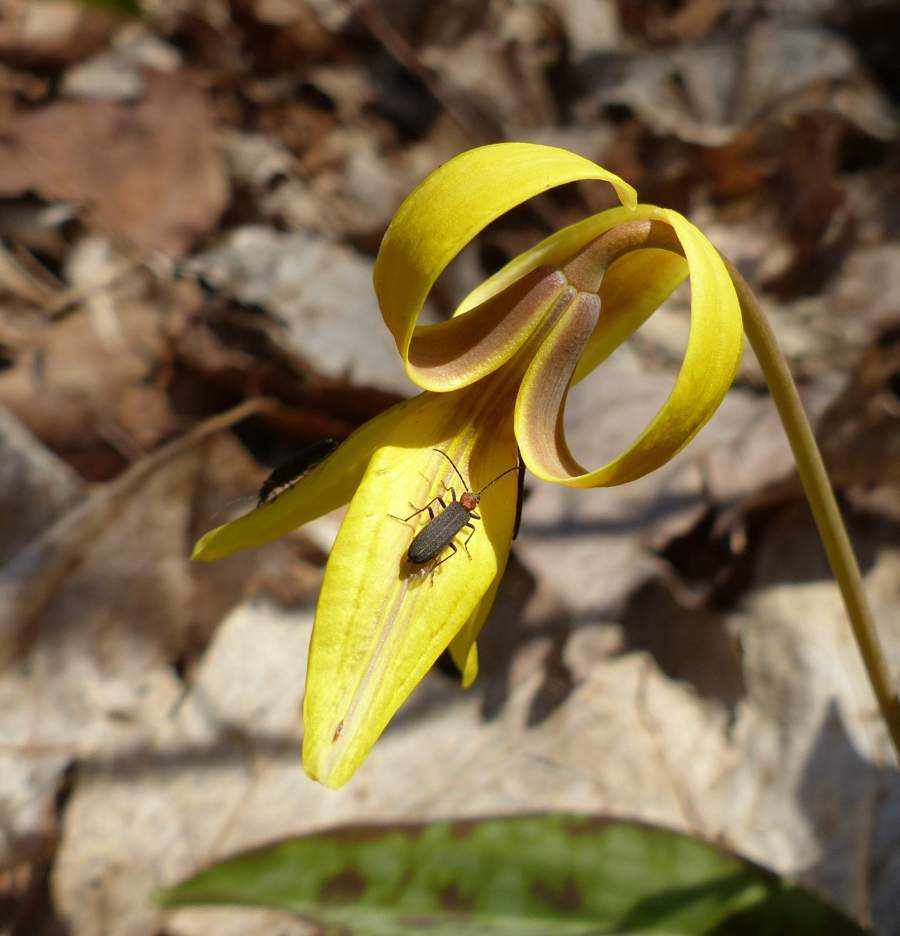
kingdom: Animalia
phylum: Arthropoda
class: Insecta
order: Coleoptera
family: Oedemeridae
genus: Ischnomera
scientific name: Ischnomera
